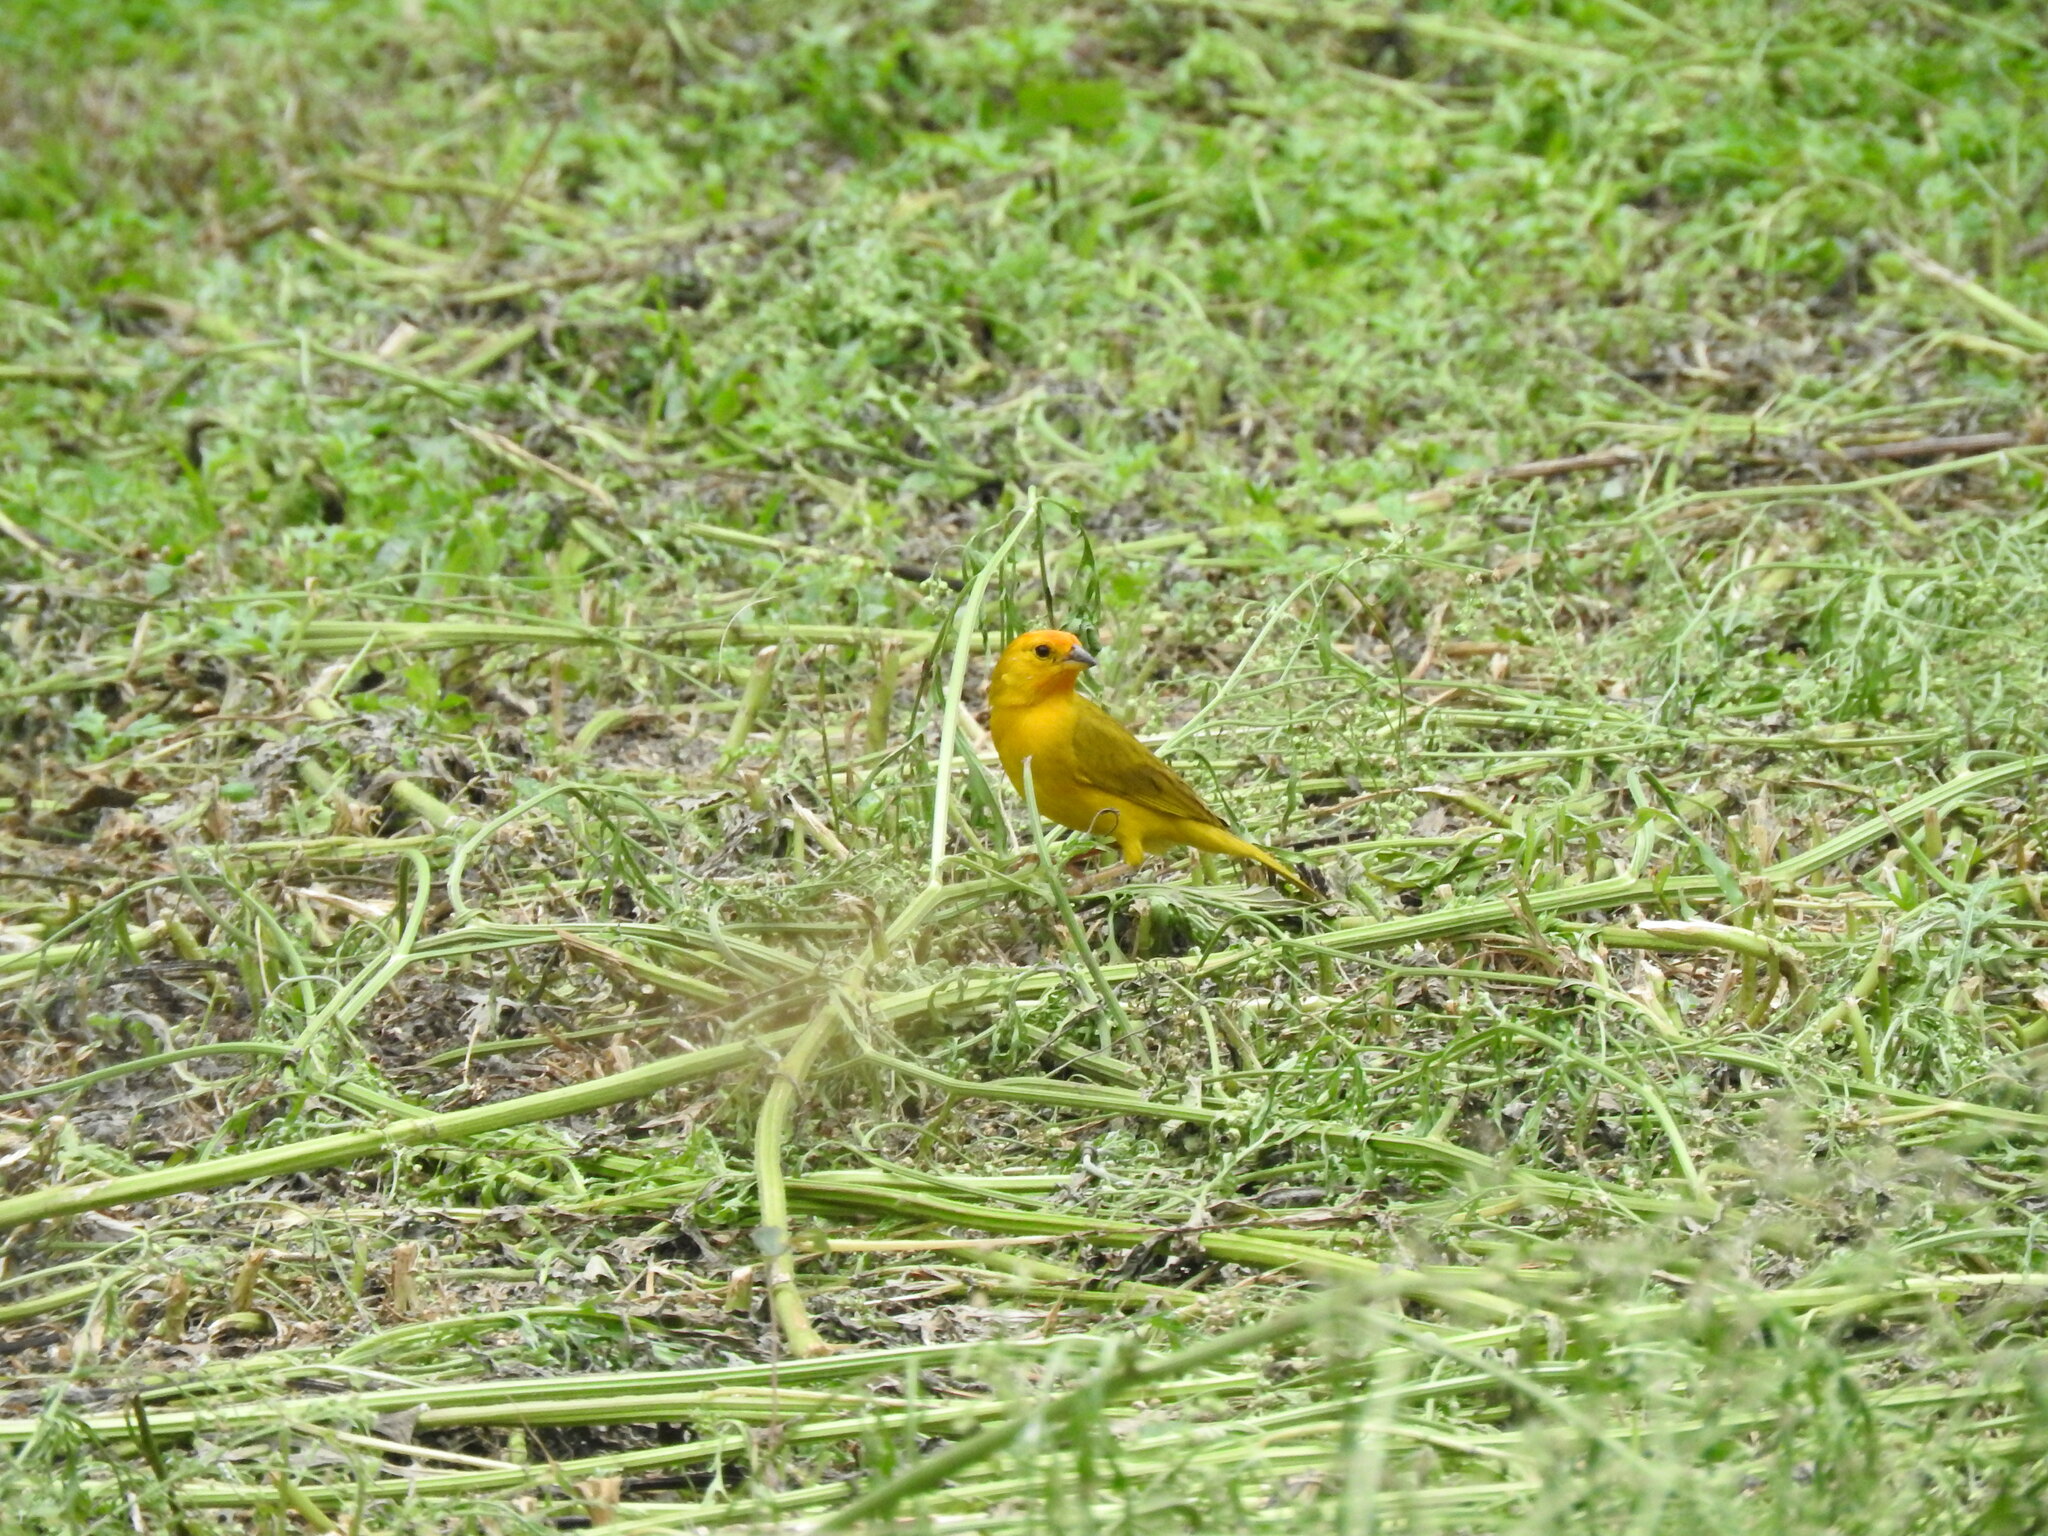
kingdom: Animalia
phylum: Chordata
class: Aves
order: Passeriformes
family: Thraupidae
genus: Sicalis
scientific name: Sicalis flaveola
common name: Saffron finch
